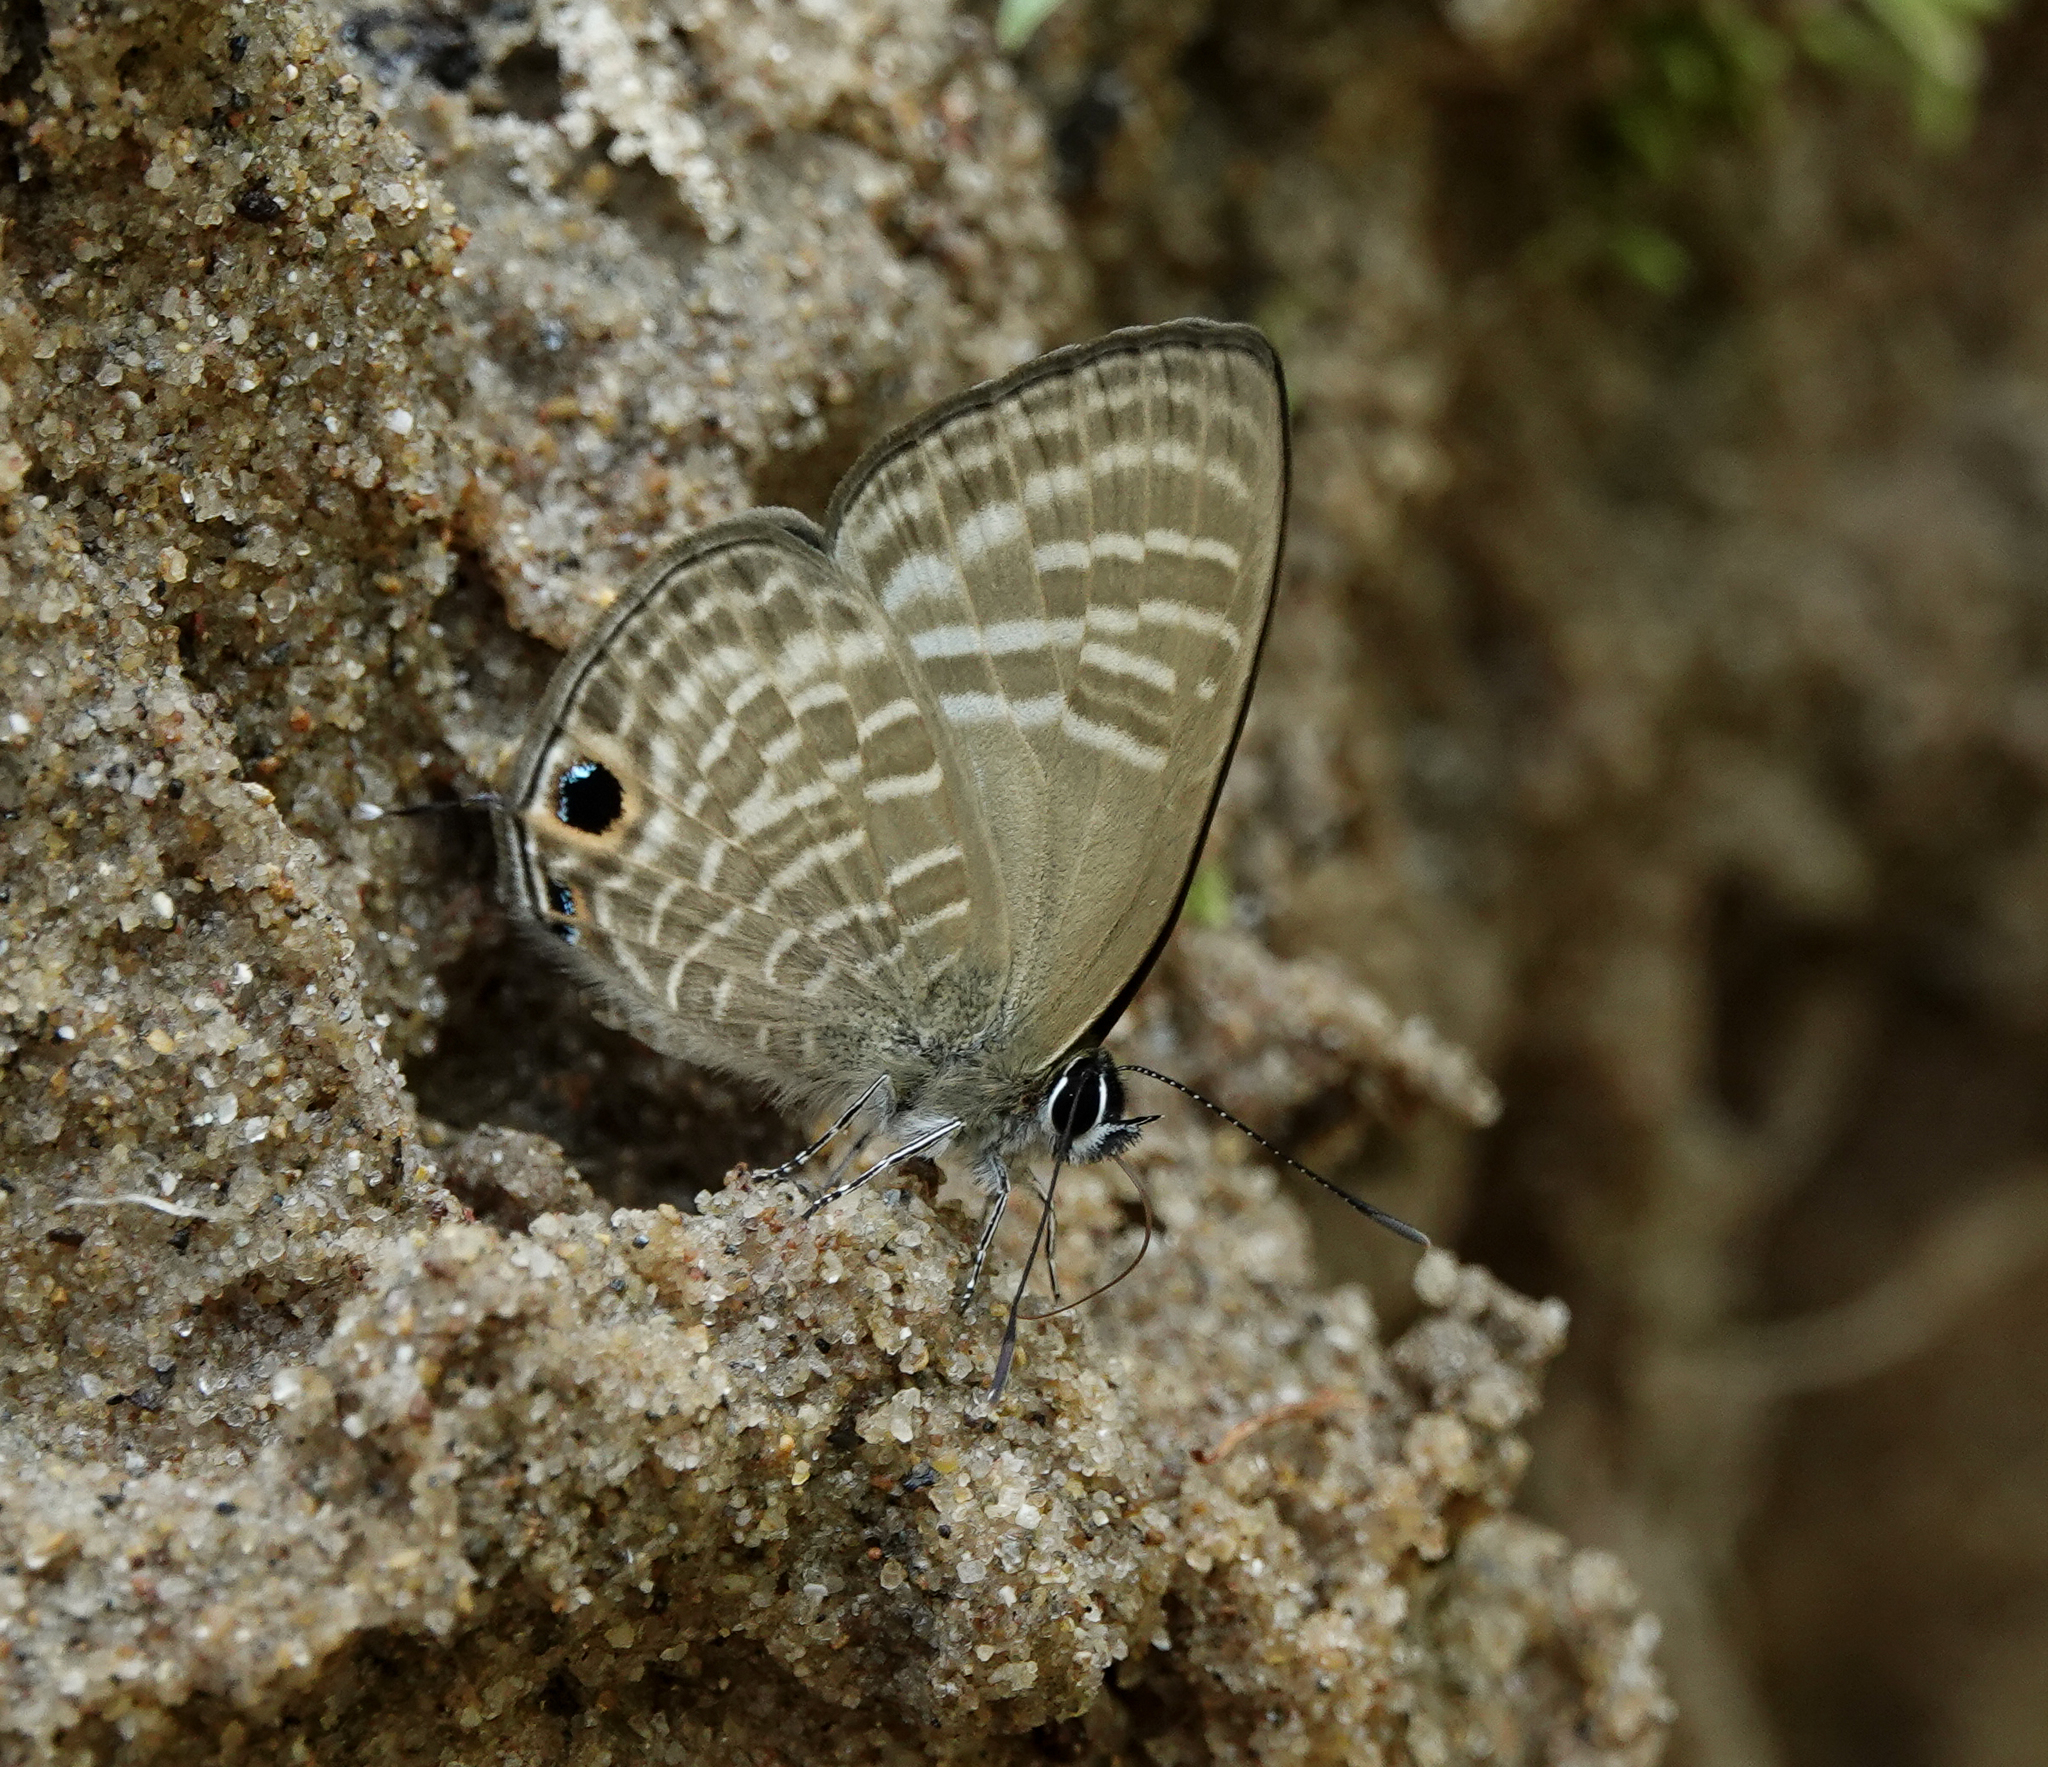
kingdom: Animalia
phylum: Arthropoda
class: Insecta
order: Lepidoptera
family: Lycaenidae
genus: Nacaduba
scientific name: Nacaduba pactolus
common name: Large fourline blue
